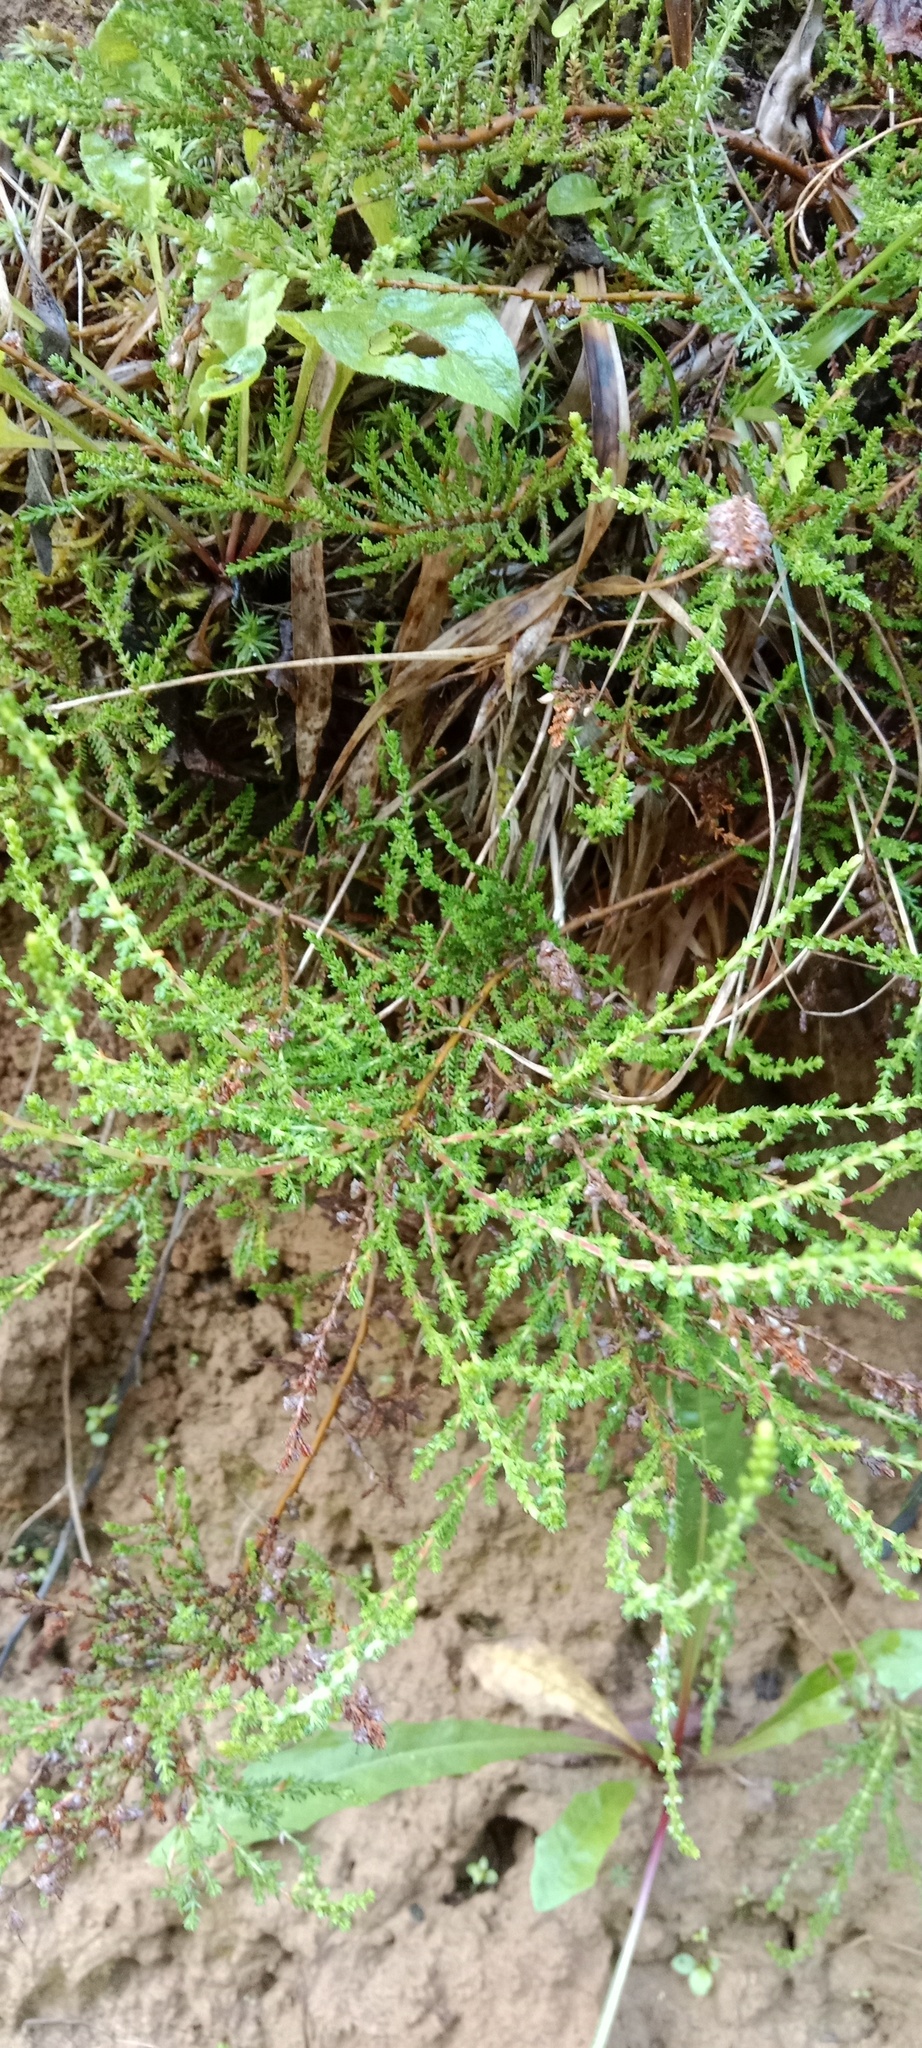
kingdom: Plantae
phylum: Tracheophyta
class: Magnoliopsida
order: Ericales
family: Ericaceae
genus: Calluna
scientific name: Calluna vulgaris
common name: Heather
